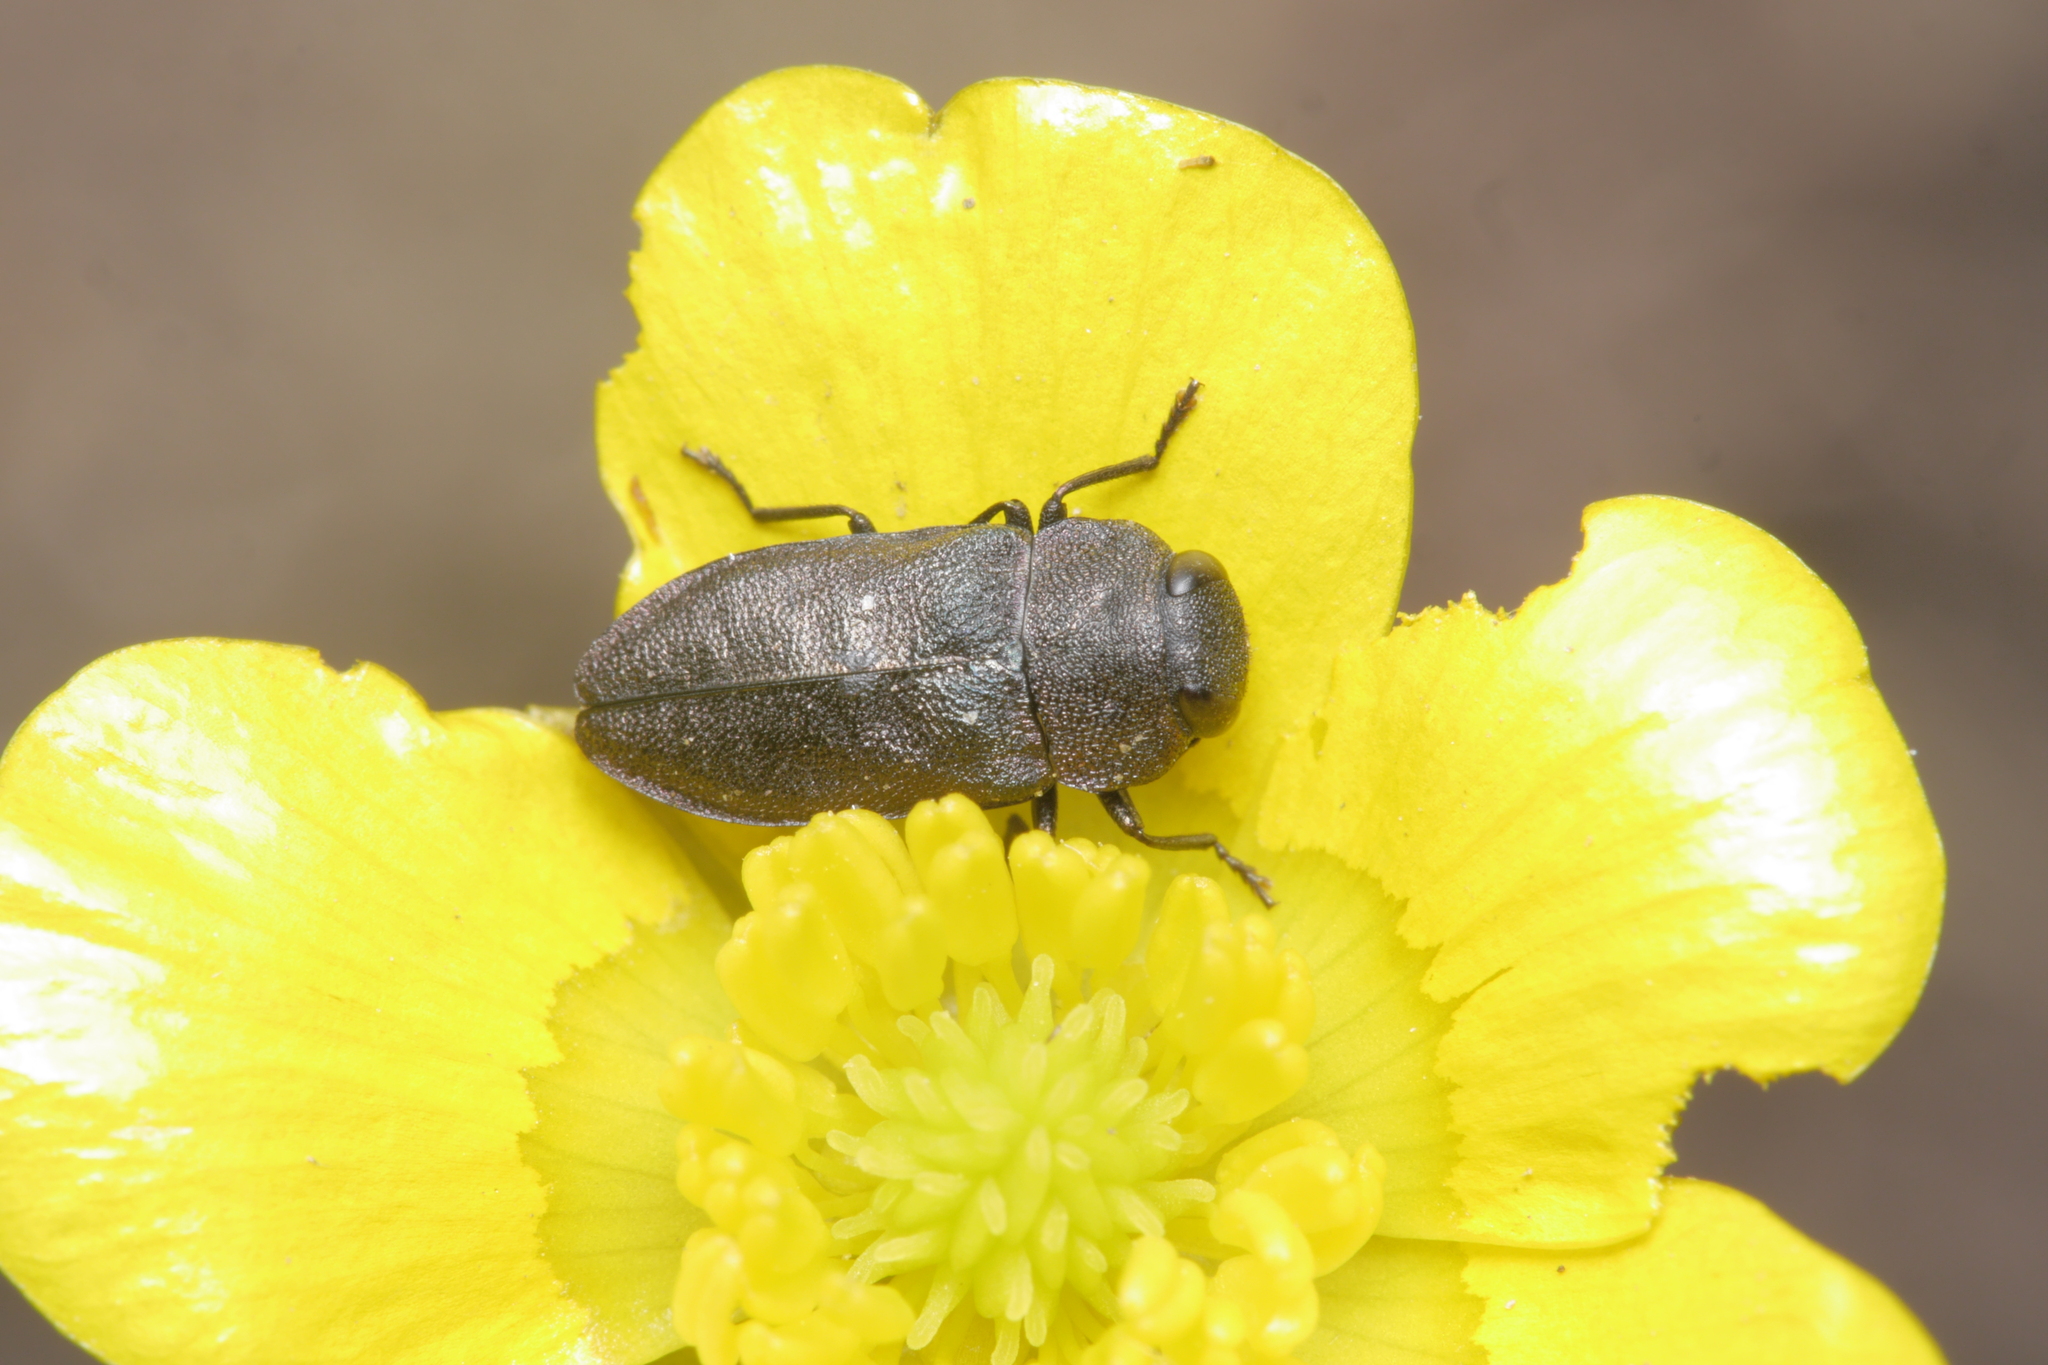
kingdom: Animalia
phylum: Arthropoda
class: Insecta
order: Coleoptera
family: Buprestidae
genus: Anthaxia
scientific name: Anthaxia helvetica
